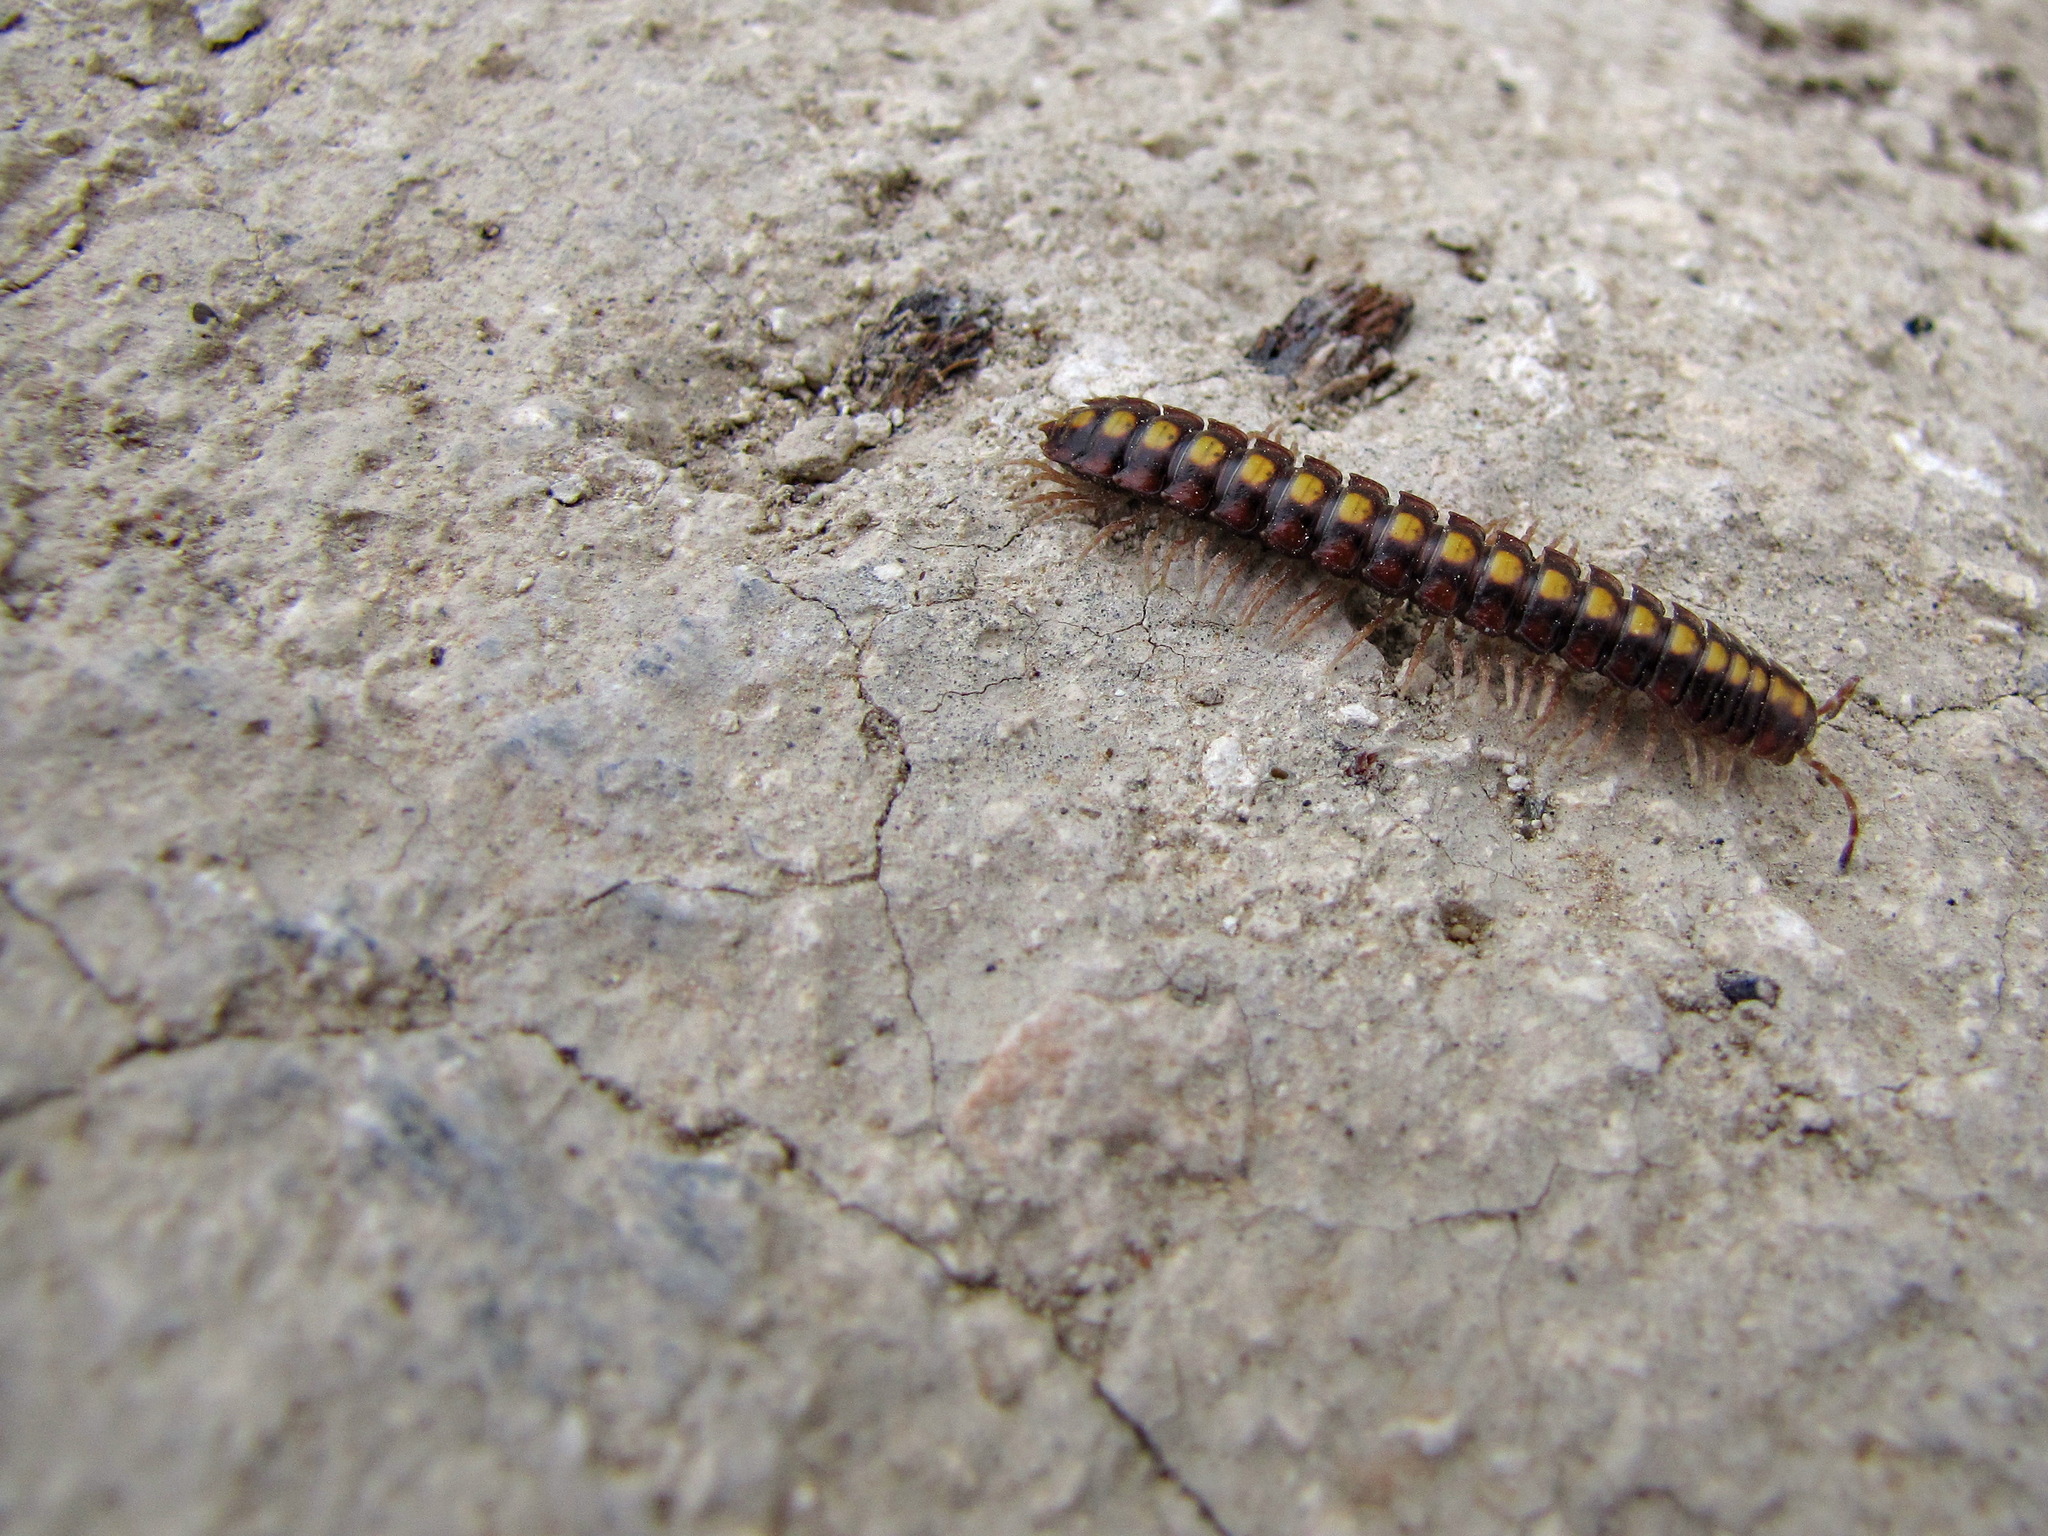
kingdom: Animalia
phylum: Arthropoda
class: Diplopoda
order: Polydesmida
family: Xystodesmidae
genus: Melaphe
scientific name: Melaphe vestita
